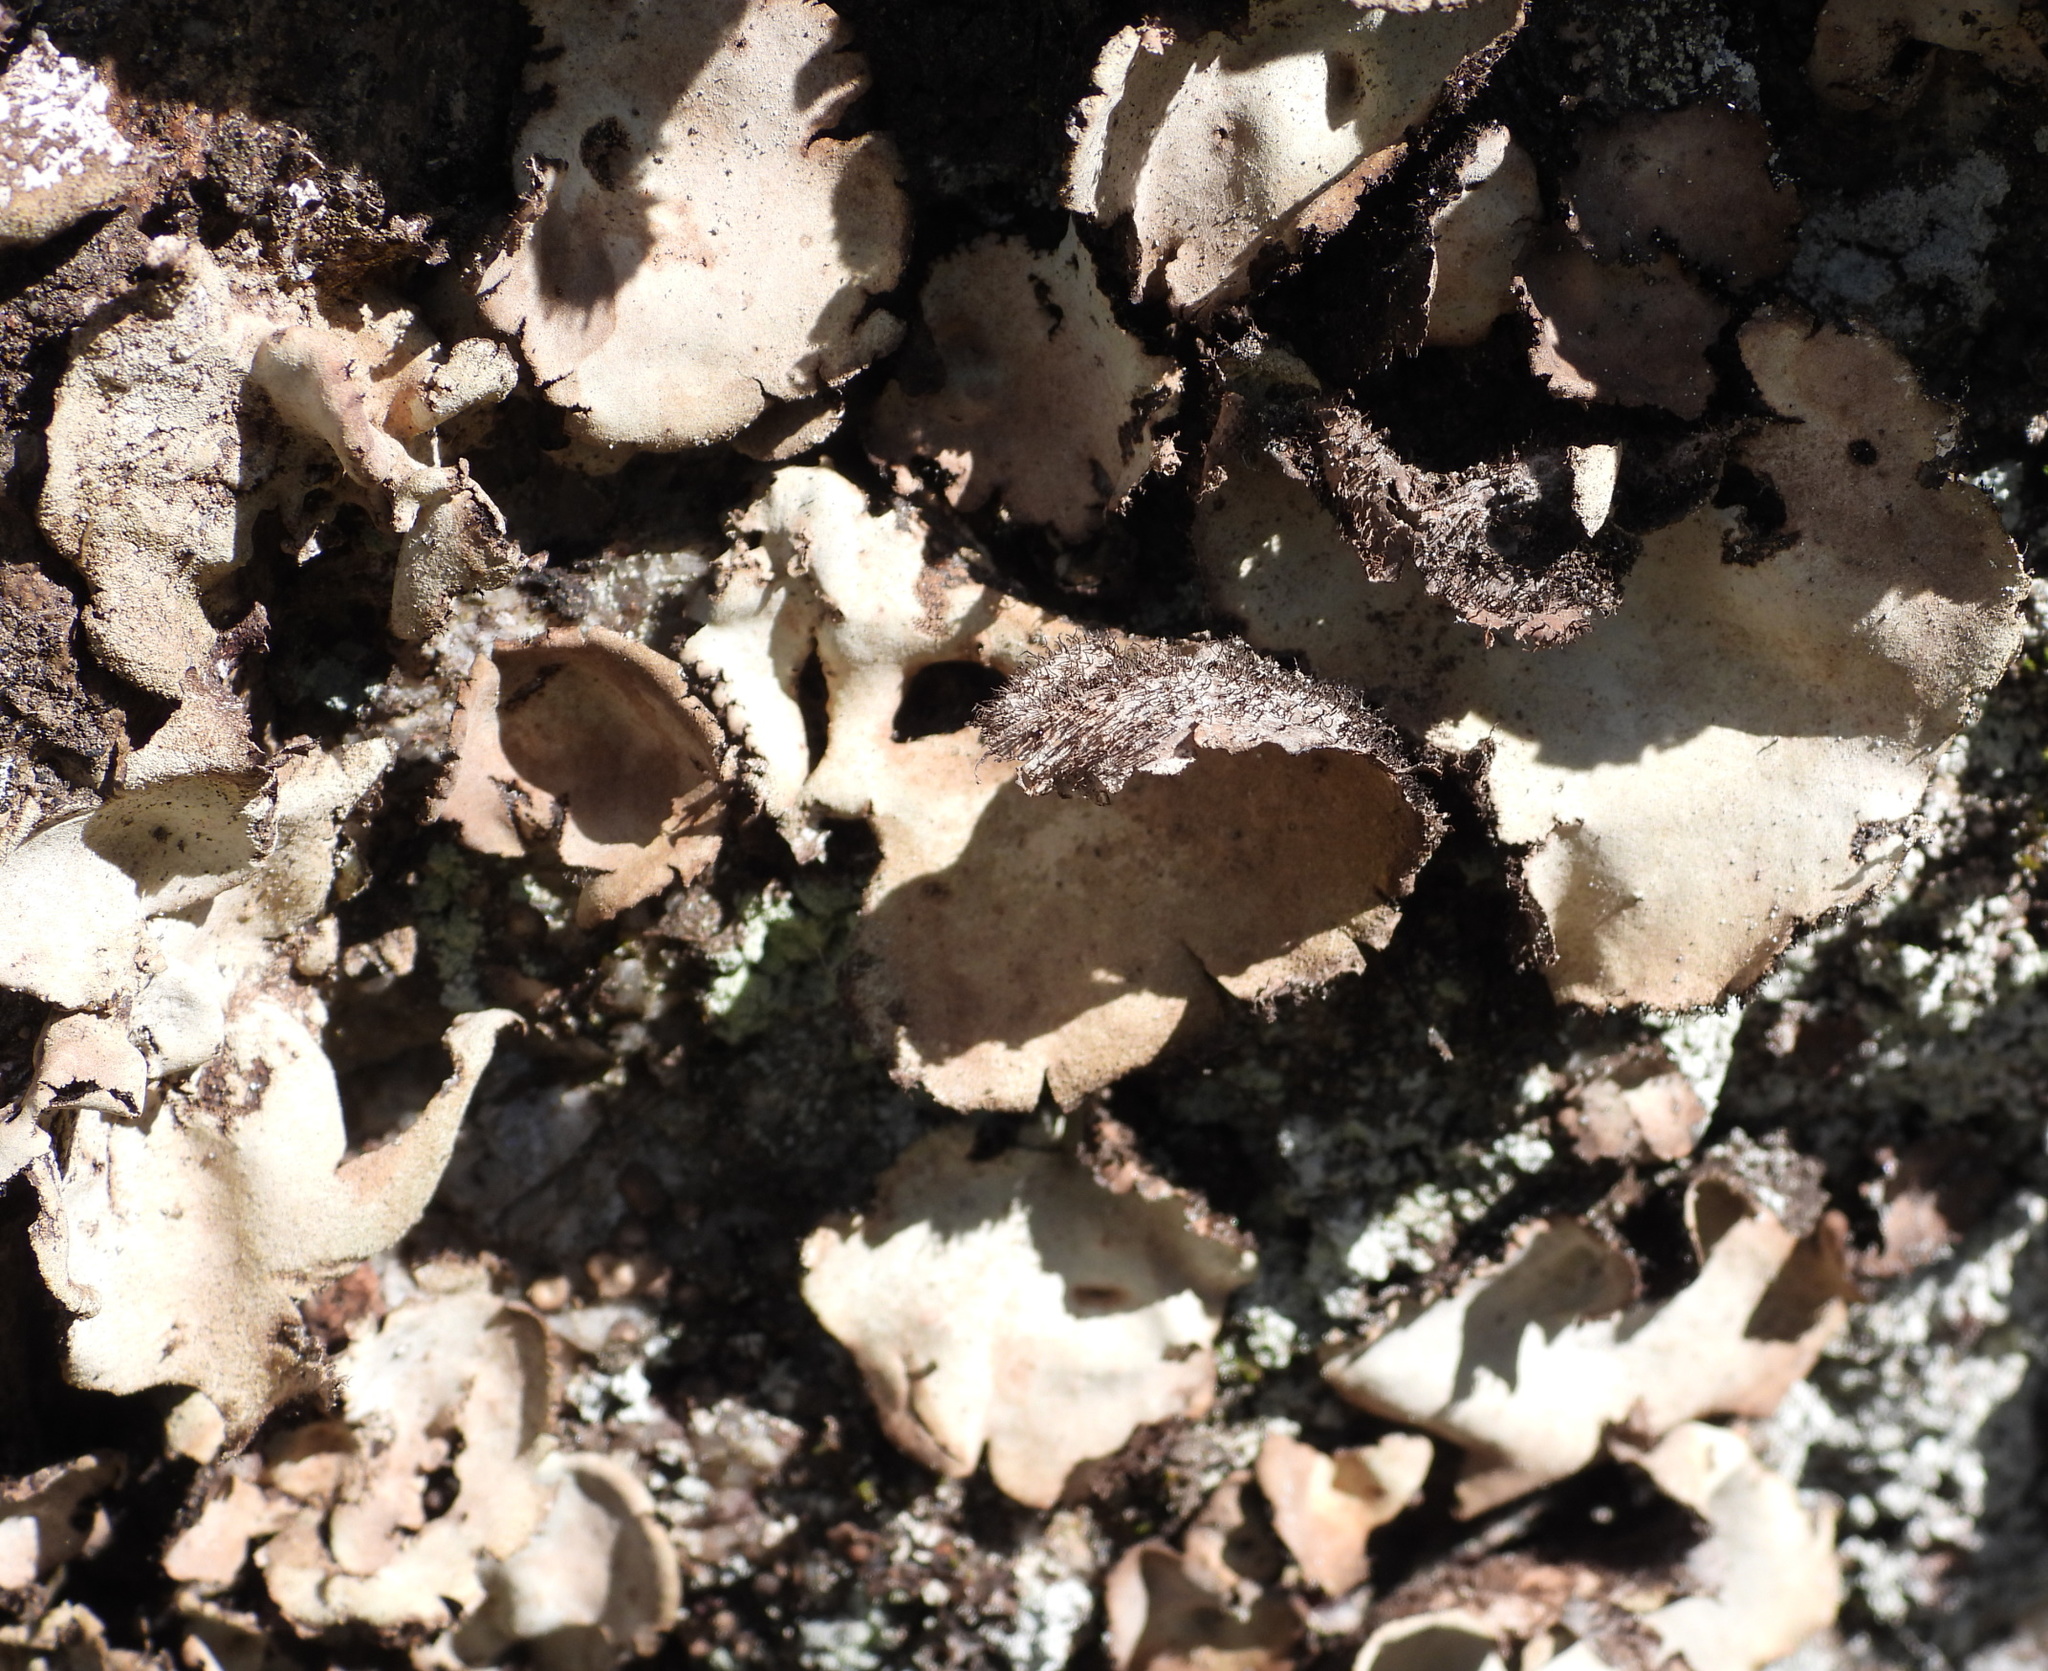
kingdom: Fungi
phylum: Ascomycota
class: Lecanoromycetes
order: Umbilicariales
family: Umbilicariaceae
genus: Umbilicaria
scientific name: Umbilicaria hirsuta
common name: Granulating rocktripe lichen
